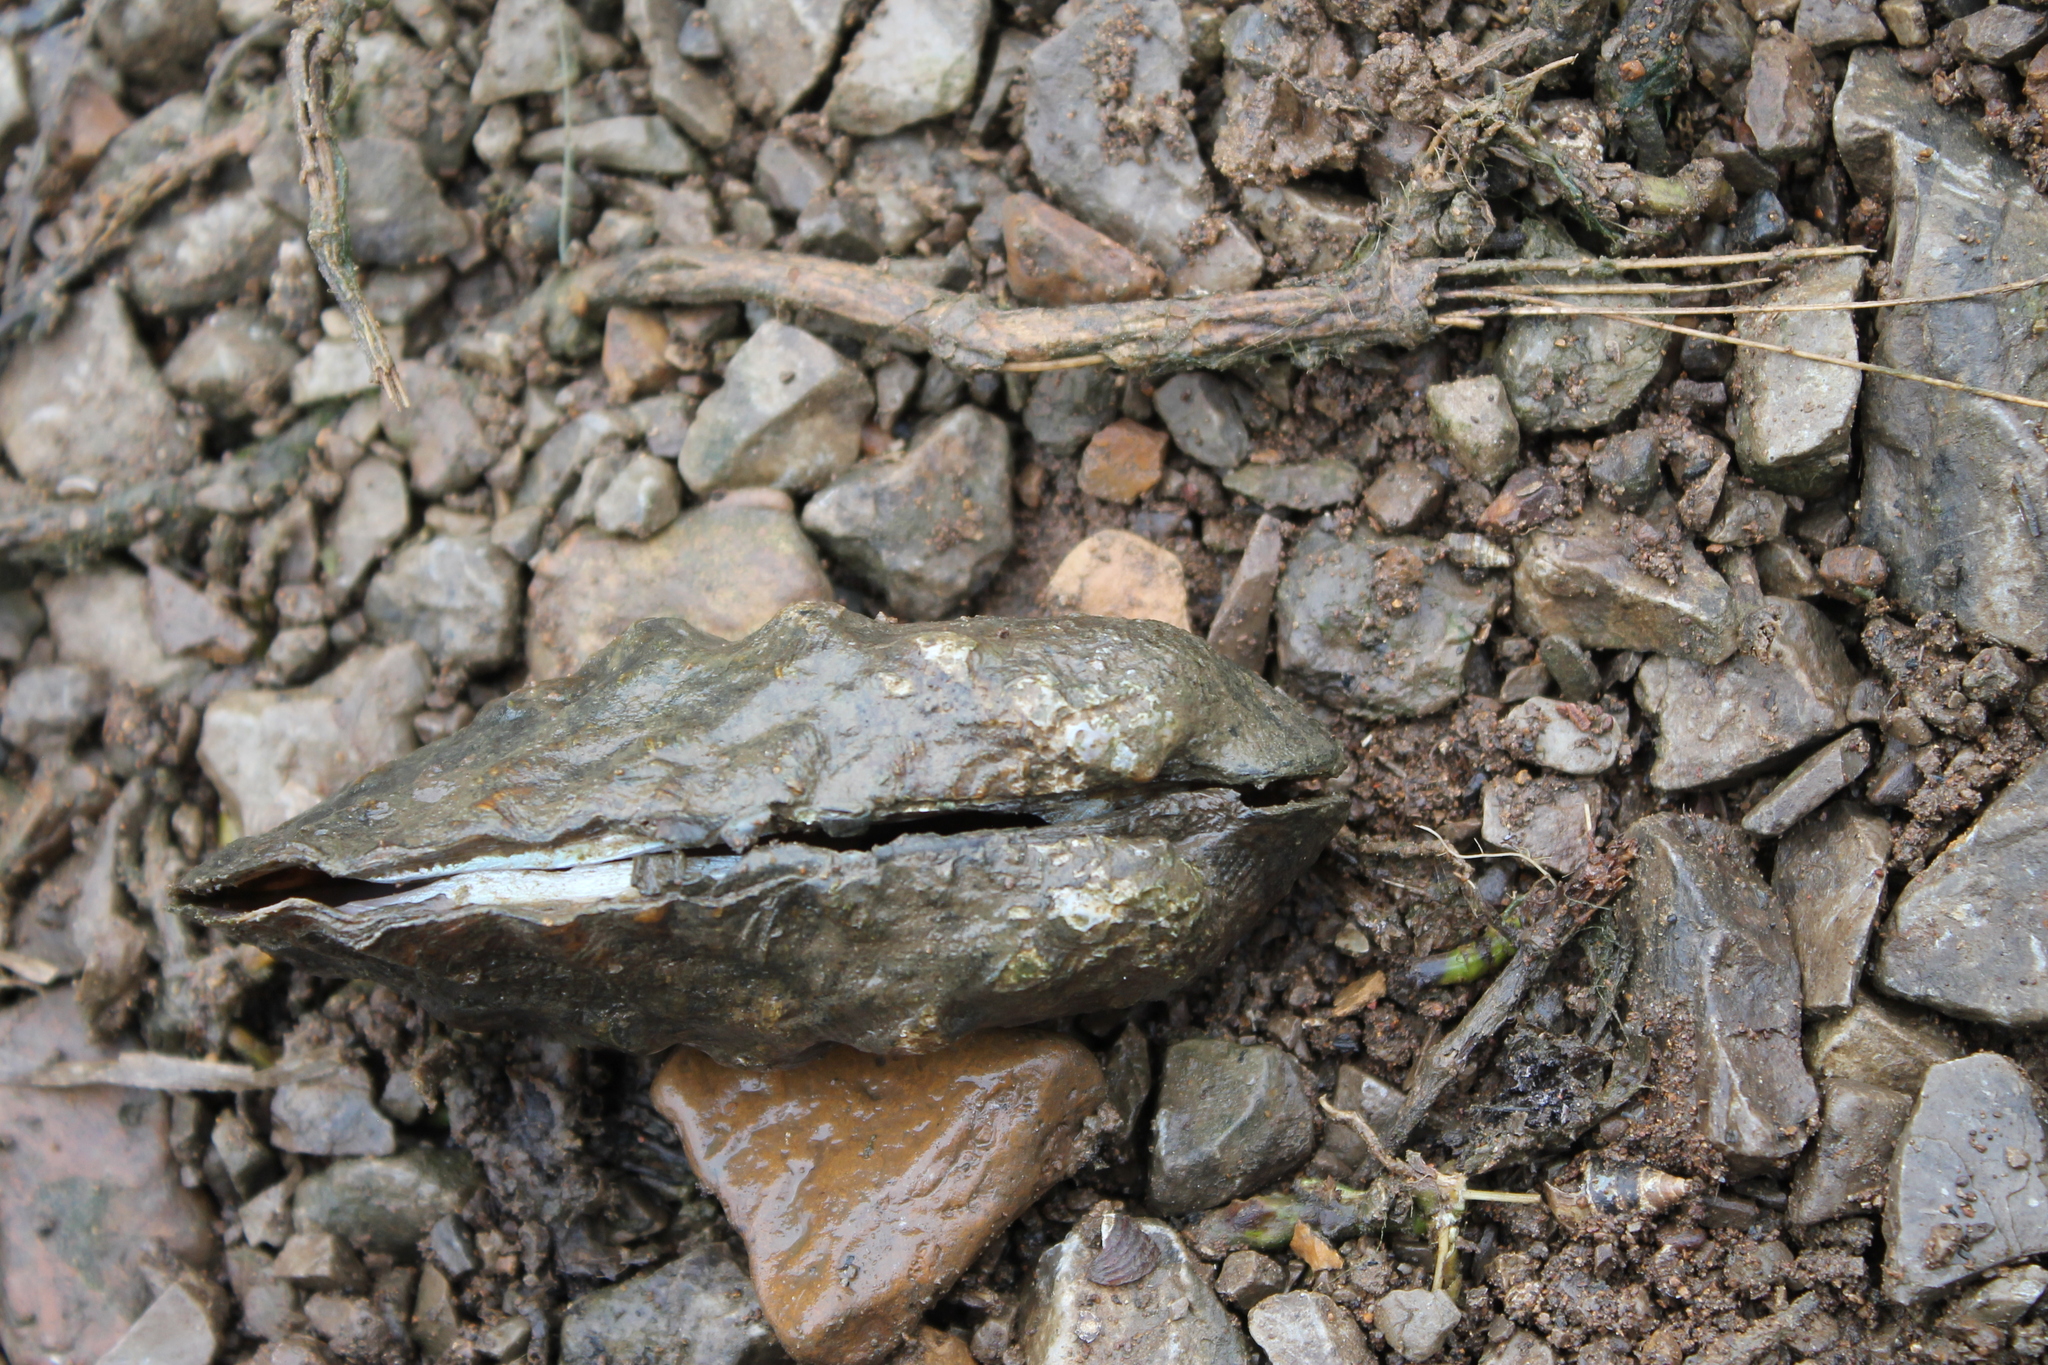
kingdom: Animalia
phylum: Mollusca
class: Bivalvia
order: Unionida
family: Unionidae
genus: Theliderma
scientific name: Theliderma cylindrica
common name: Rabbitsfoot
